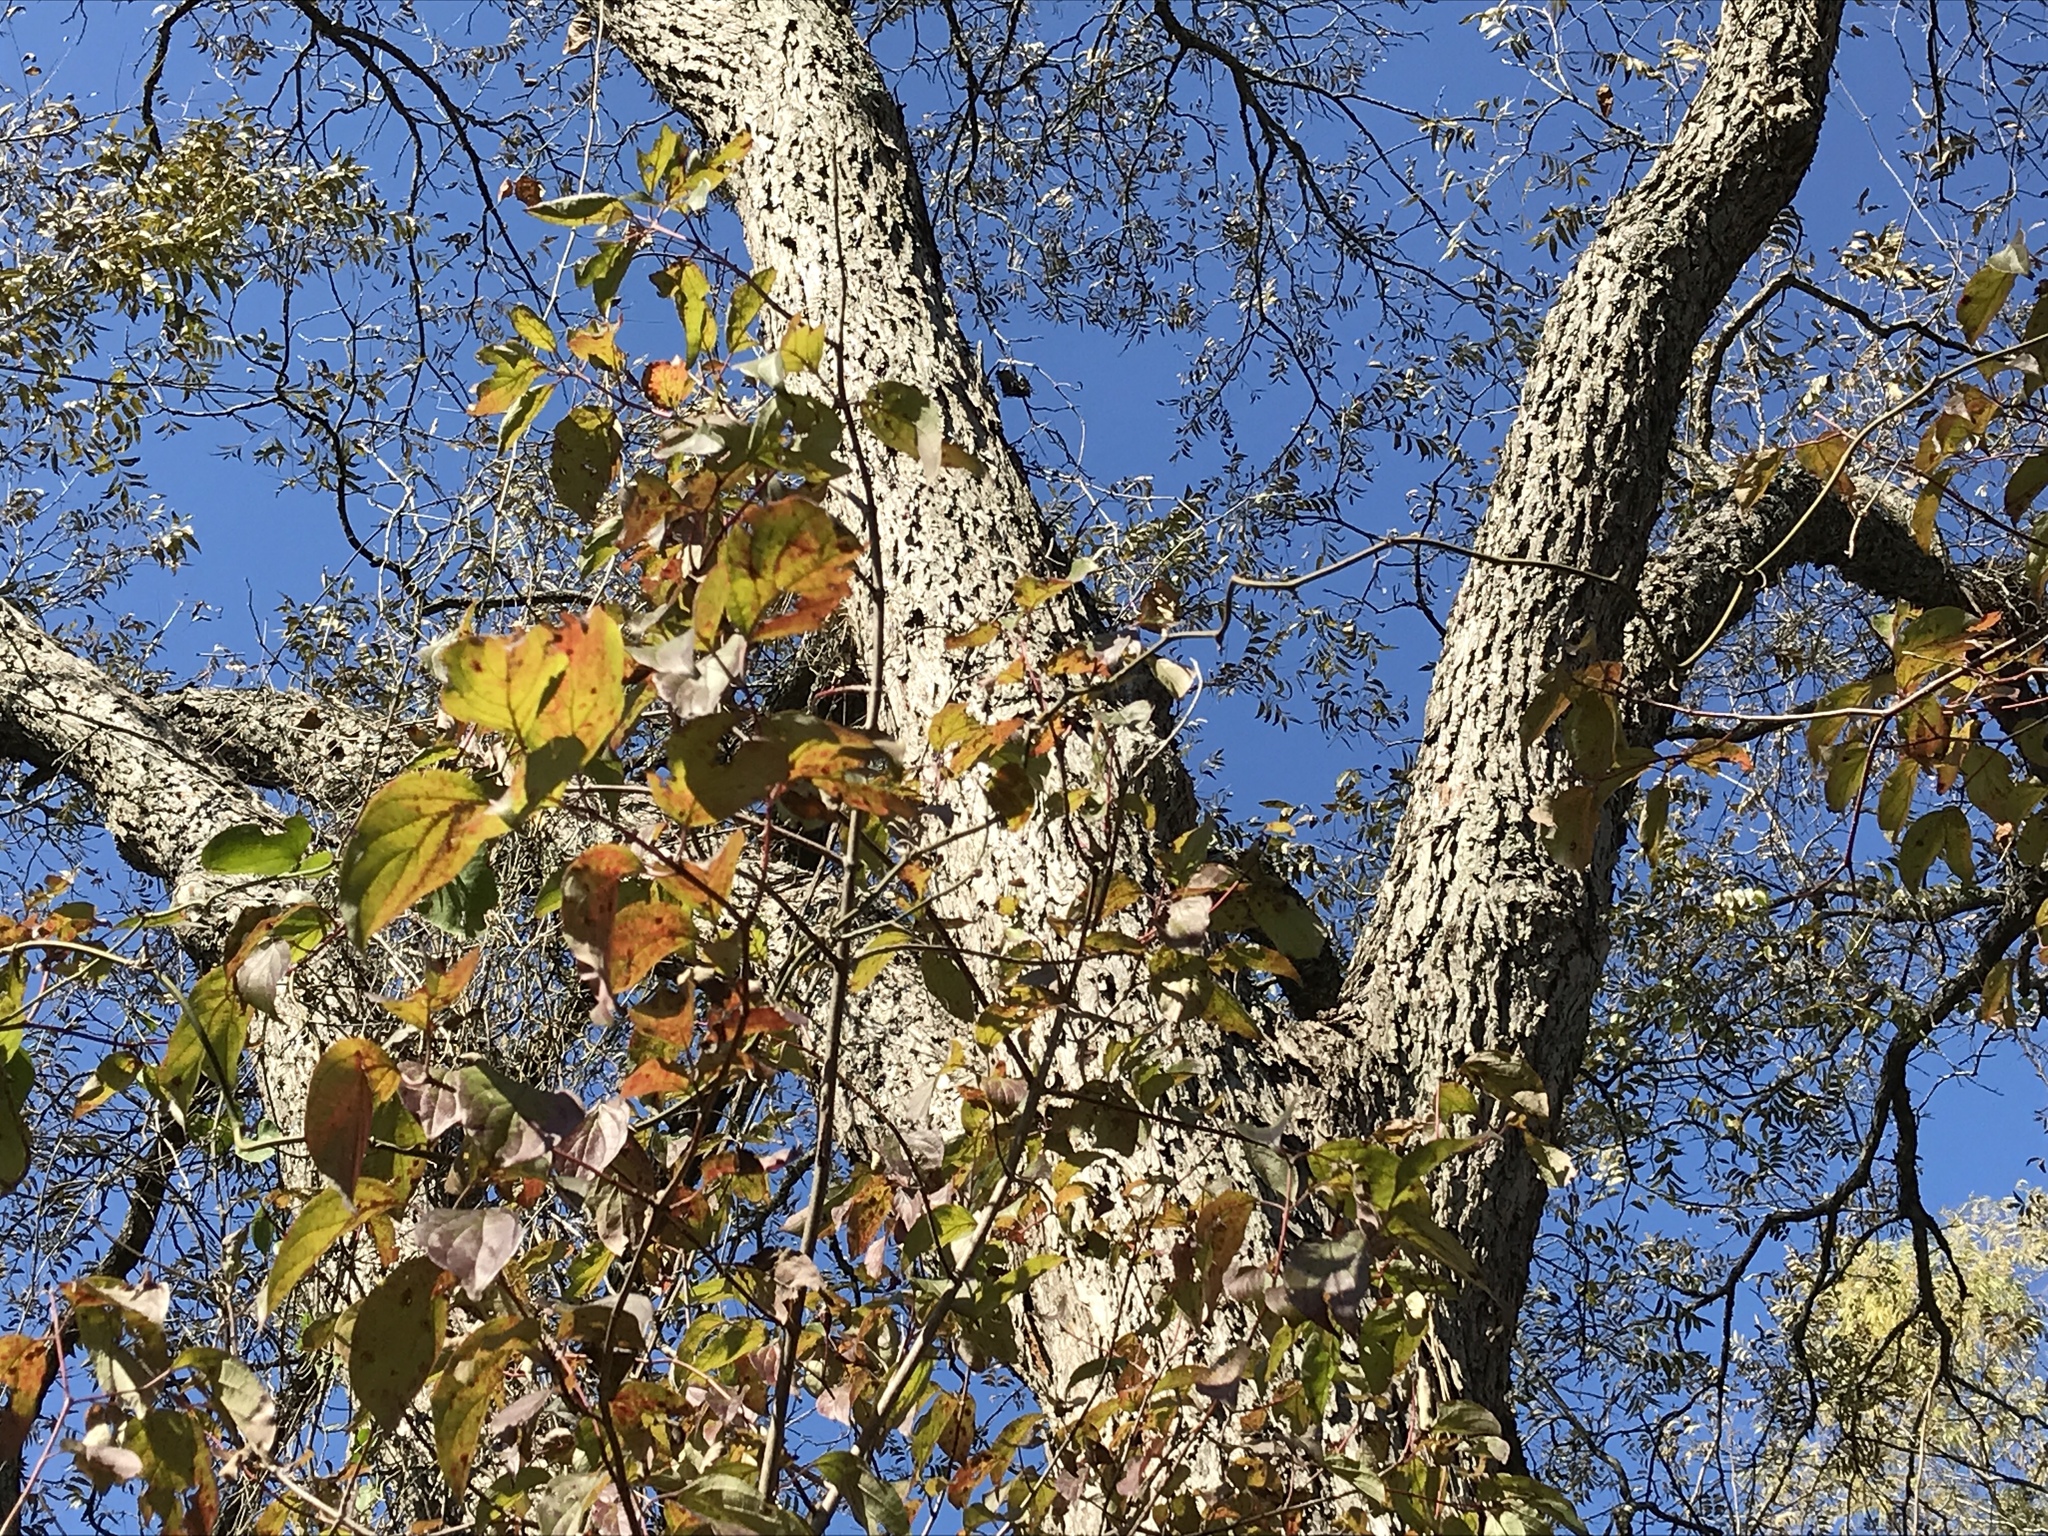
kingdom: Plantae
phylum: Tracheophyta
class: Magnoliopsida
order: Fagales
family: Juglandaceae
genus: Carya
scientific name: Carya illinoinensis
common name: Pecan
